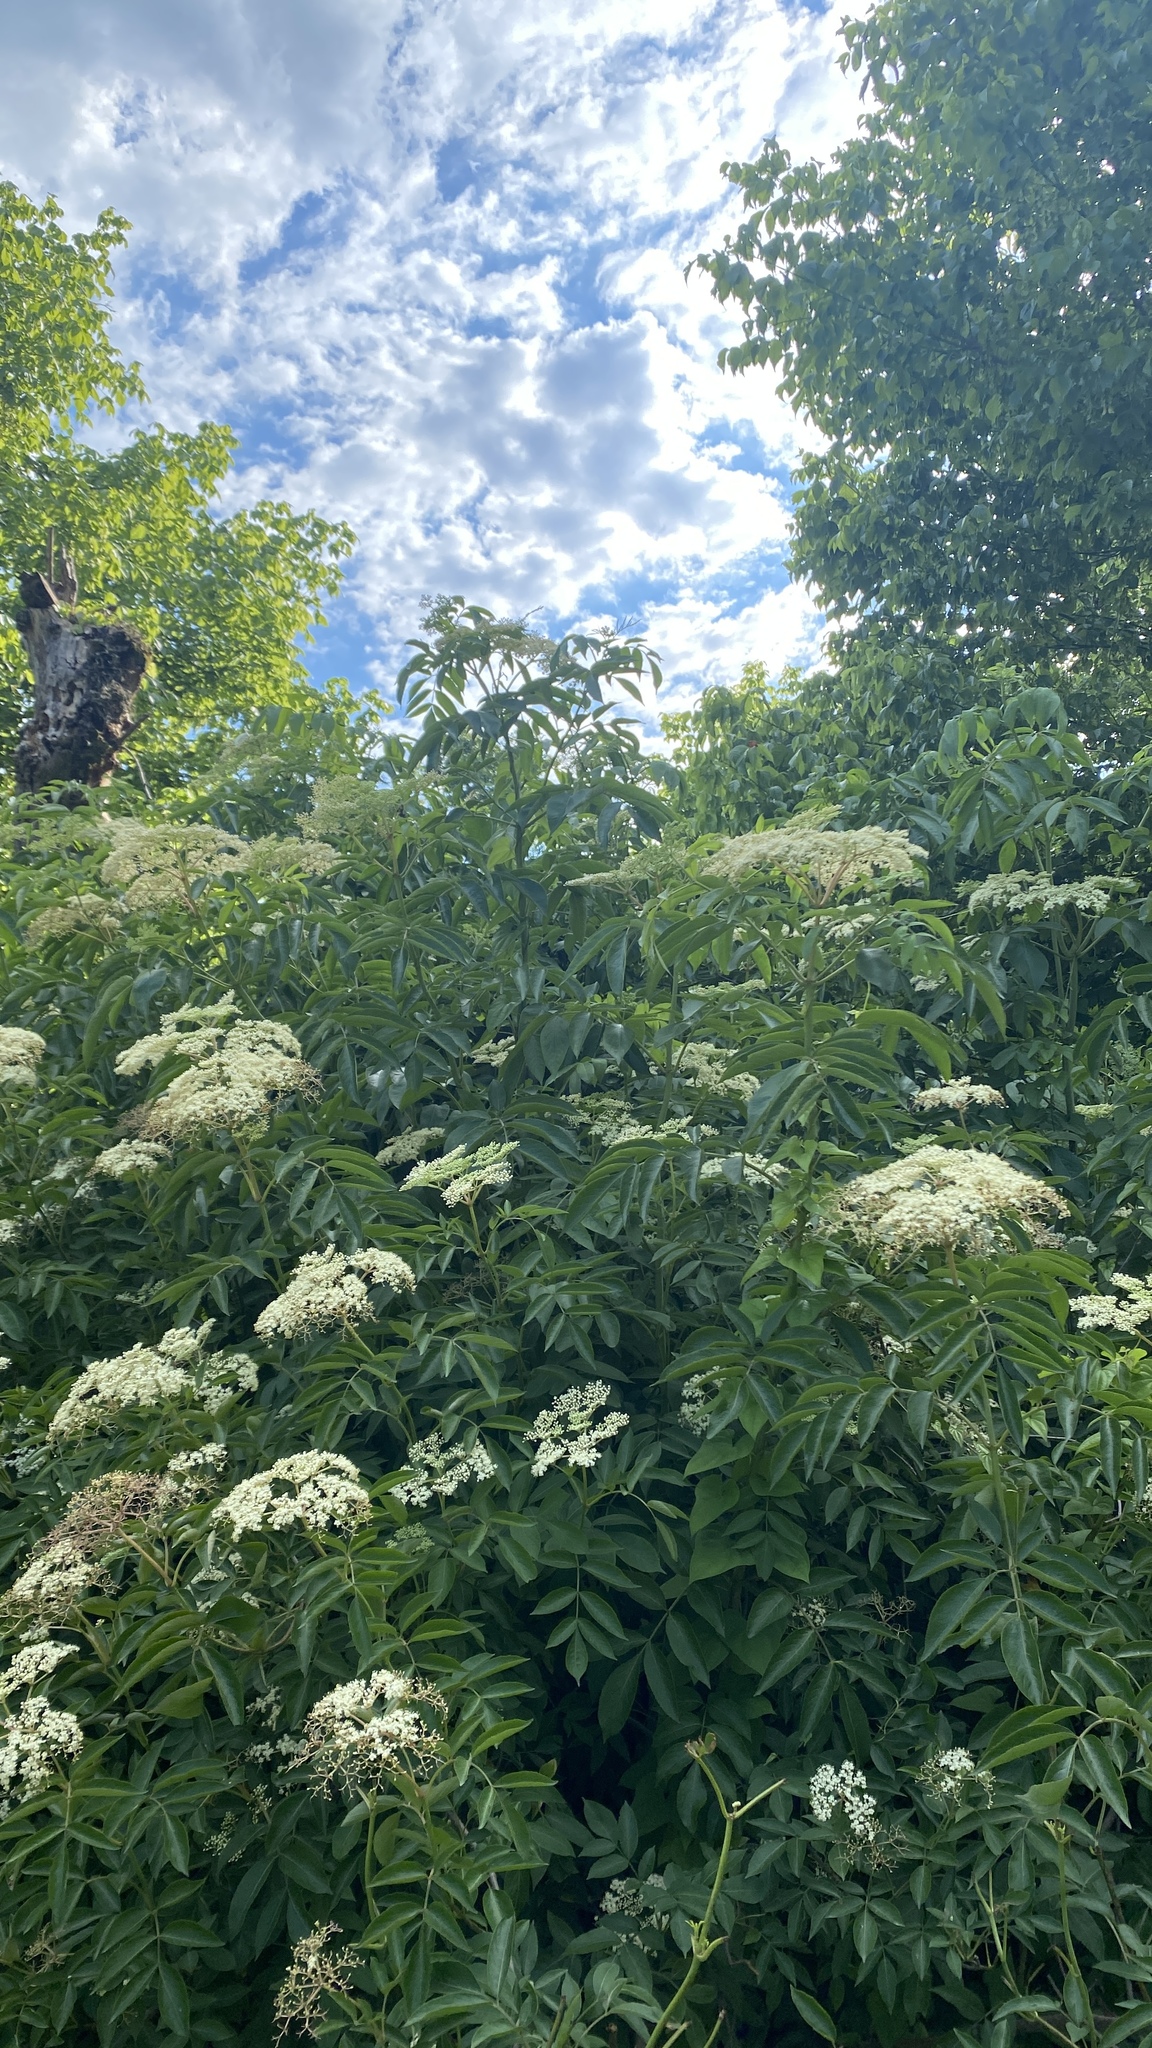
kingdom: Plantae
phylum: Tracheophyta
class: Magnoliopsida
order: Dipsacales
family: Viburnaceae
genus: Sambucus
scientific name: Sambucus canadensis
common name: American elder
